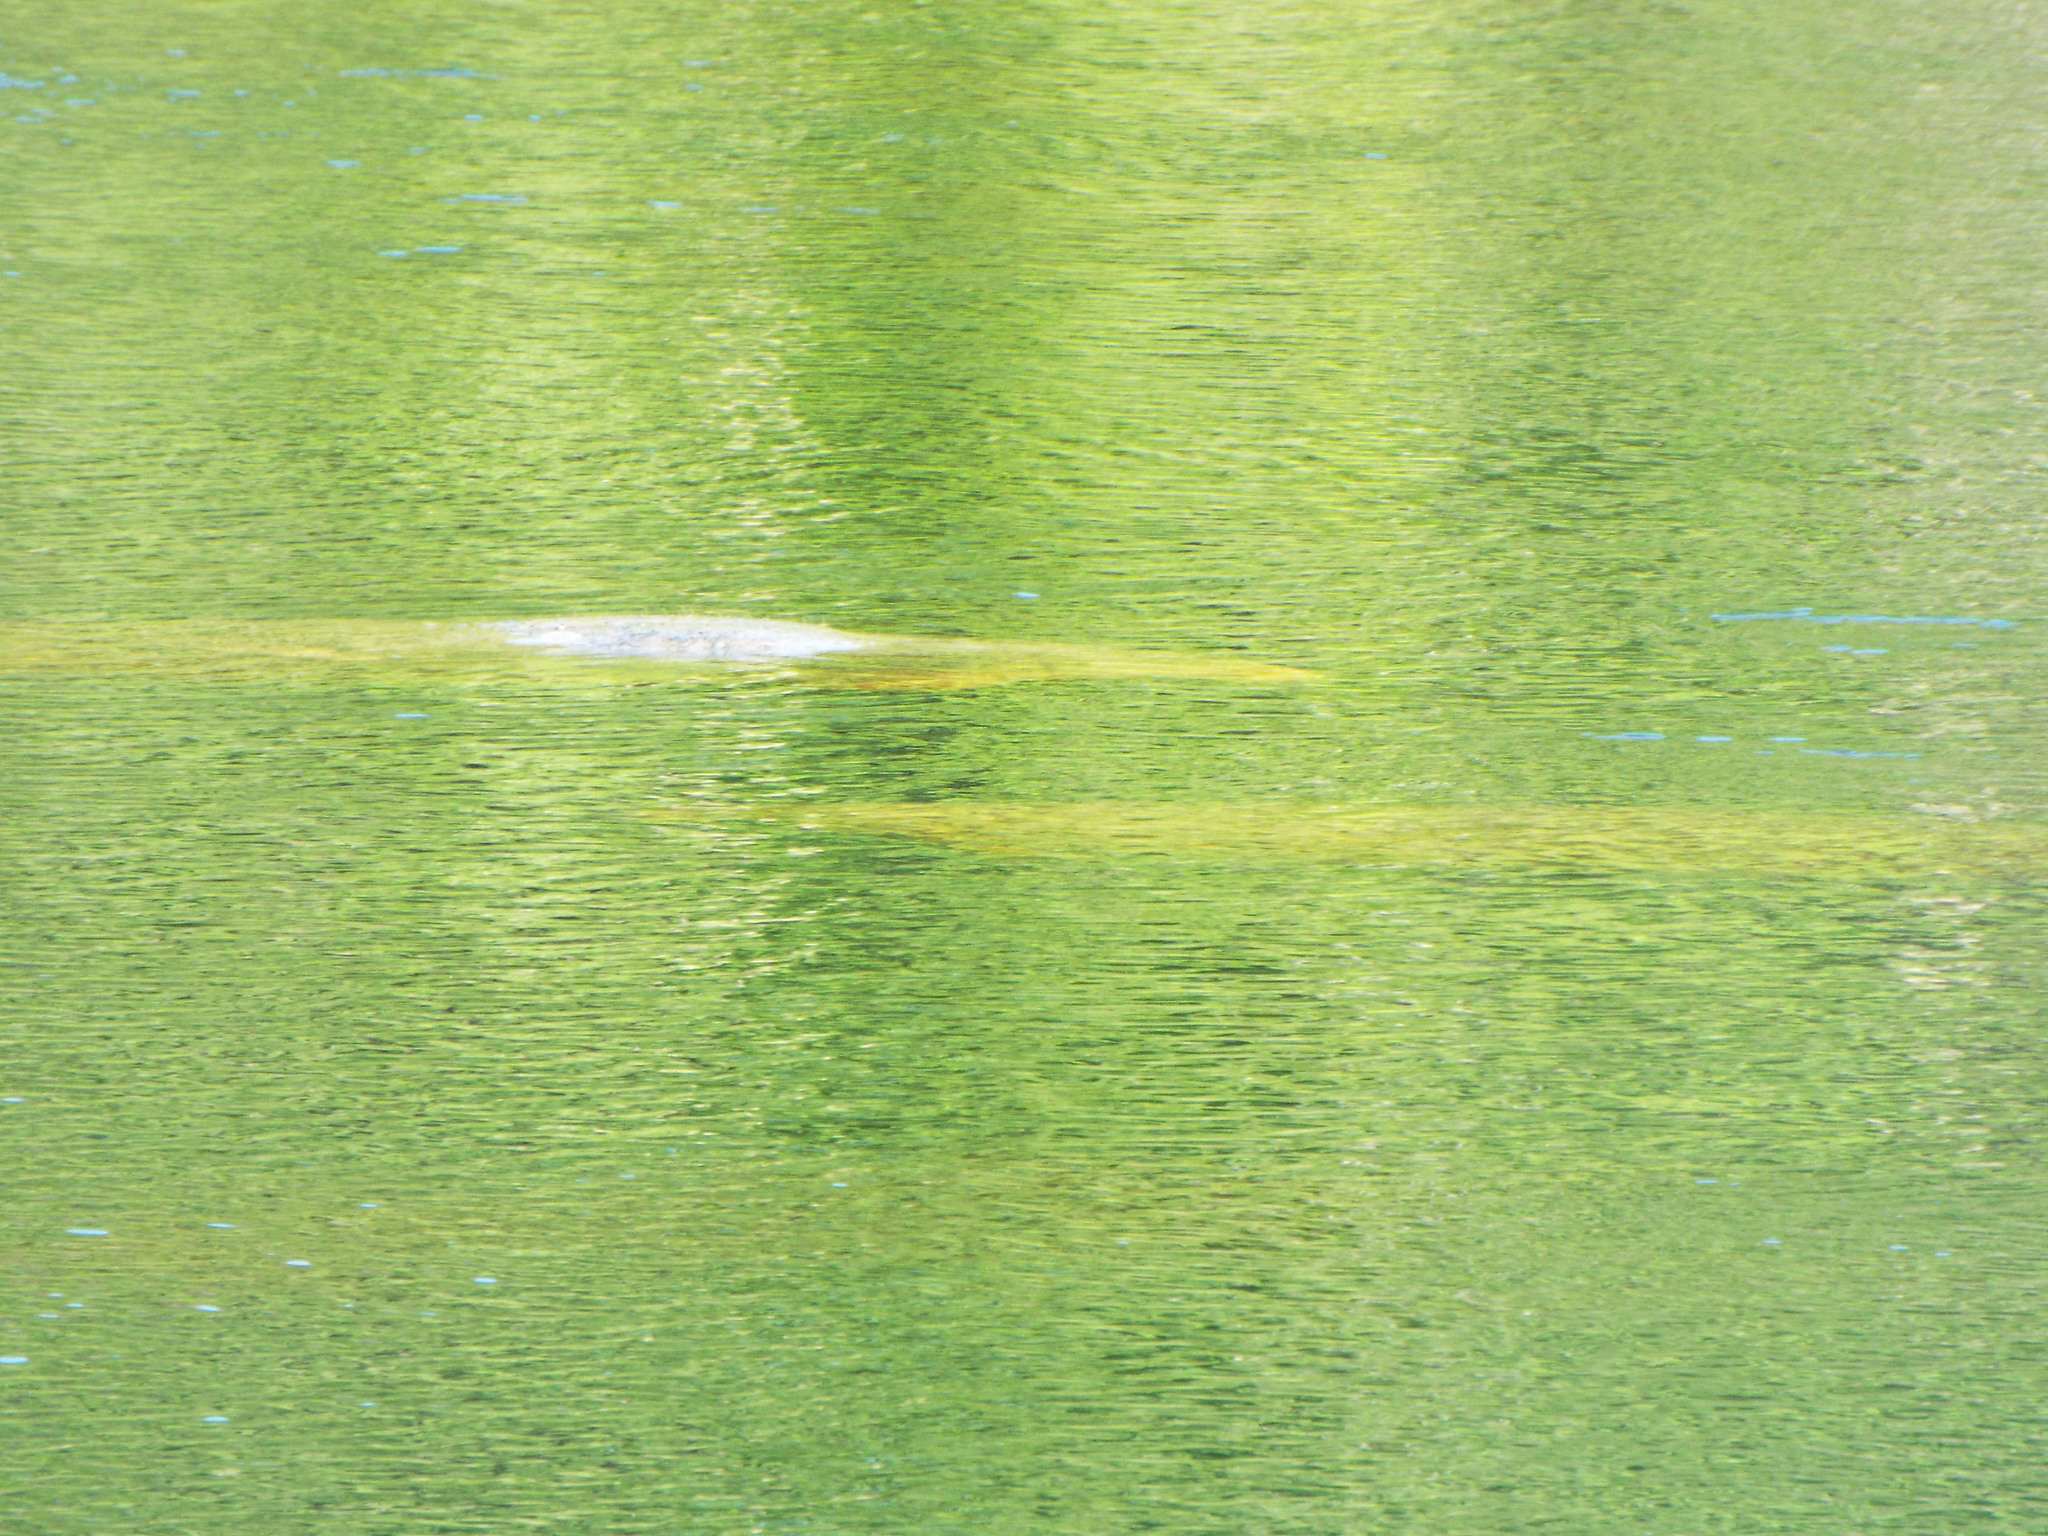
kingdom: Animalia
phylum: Chordata
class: Mammalia
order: Sirenia
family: Trichechidae
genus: Trichechus
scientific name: Trichechus manatus
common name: West indian manatee
